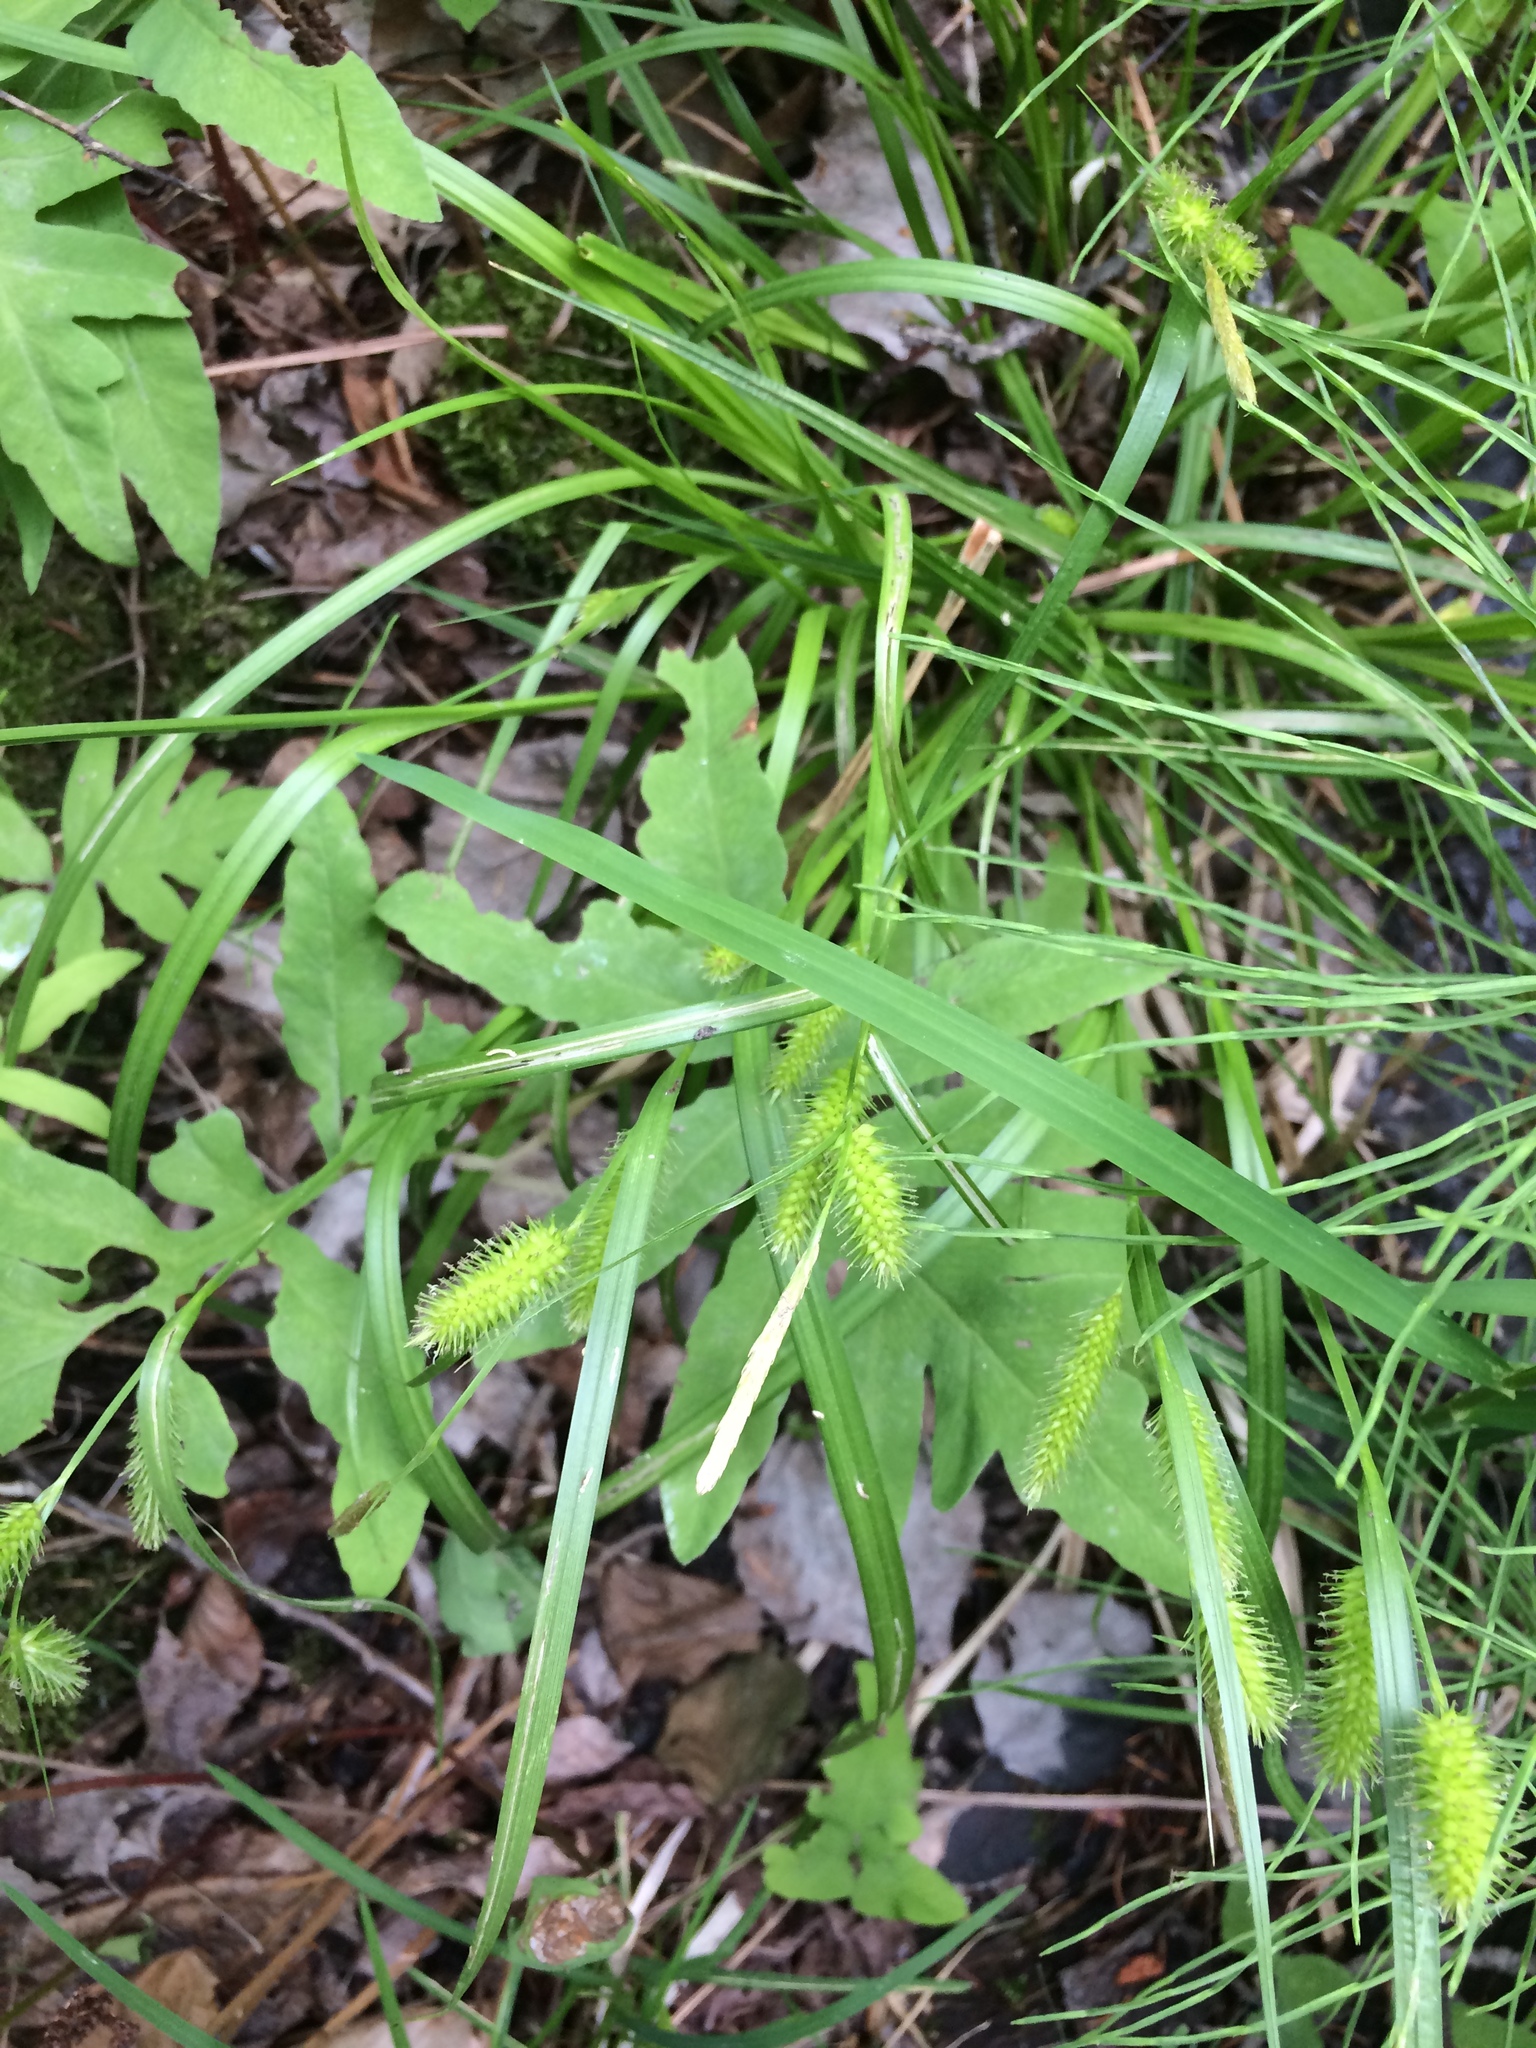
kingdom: Plantae
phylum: Tracheophyta
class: Liliopsida
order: Poales
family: Cyperaceae
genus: Carex
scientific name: Carex hystericina
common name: Bottlebrush sedge
